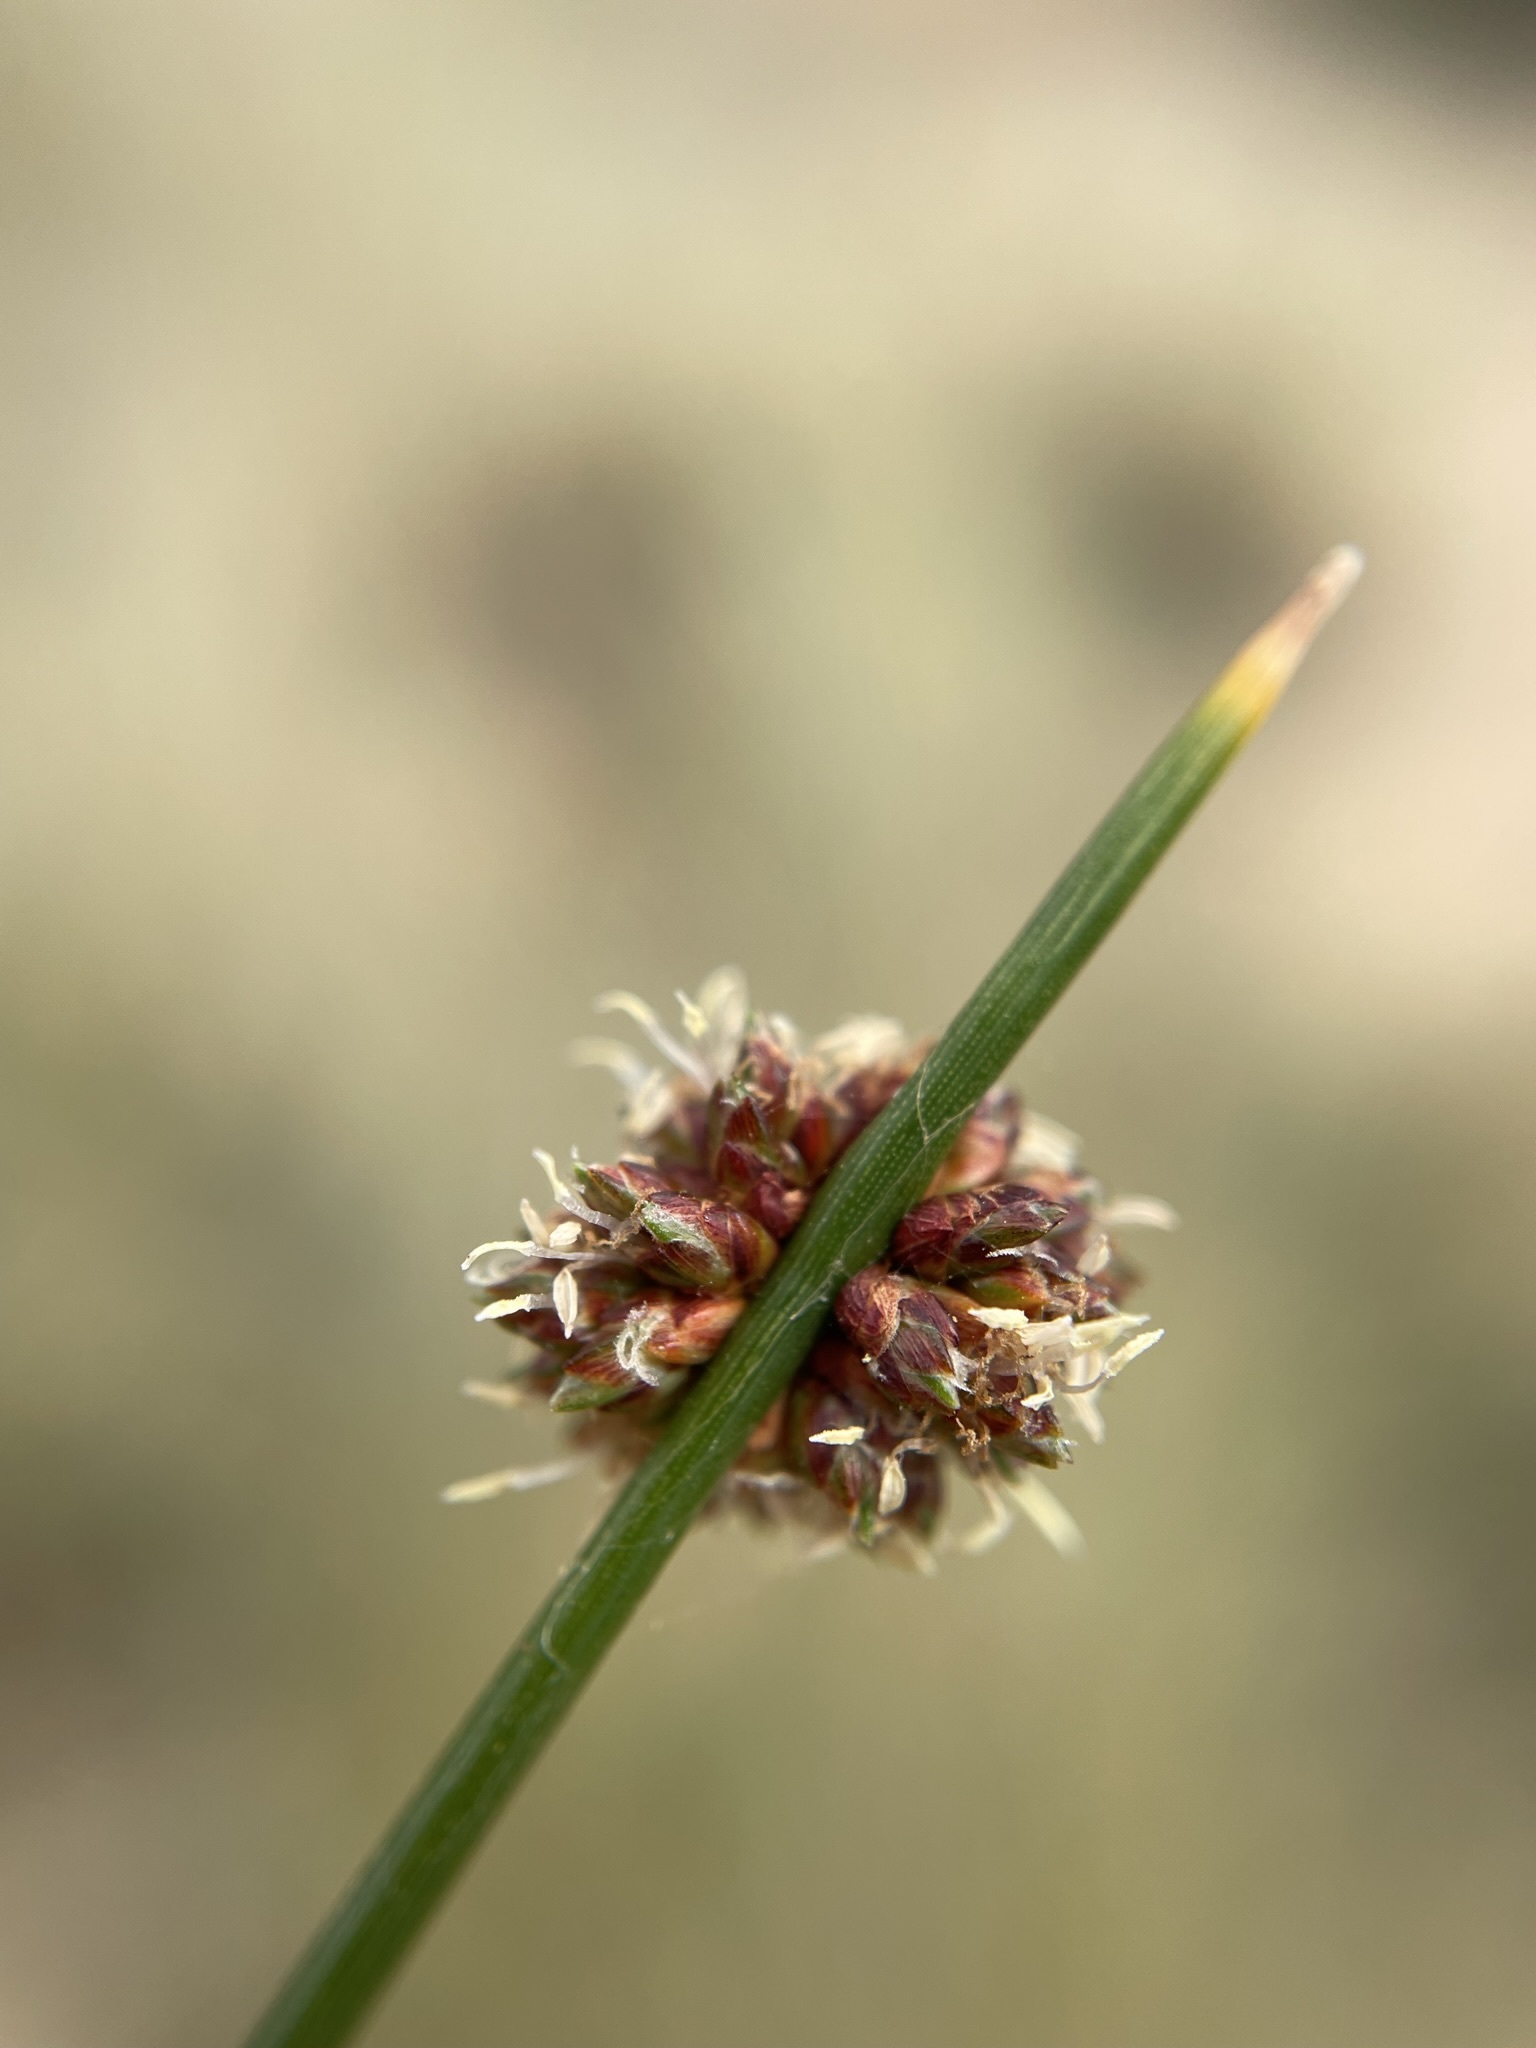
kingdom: Plantae
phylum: Tracheophyta
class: Liliopsida
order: Poales
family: Cyperaceae
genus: Ficinia
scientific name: Ficinia nodosa
